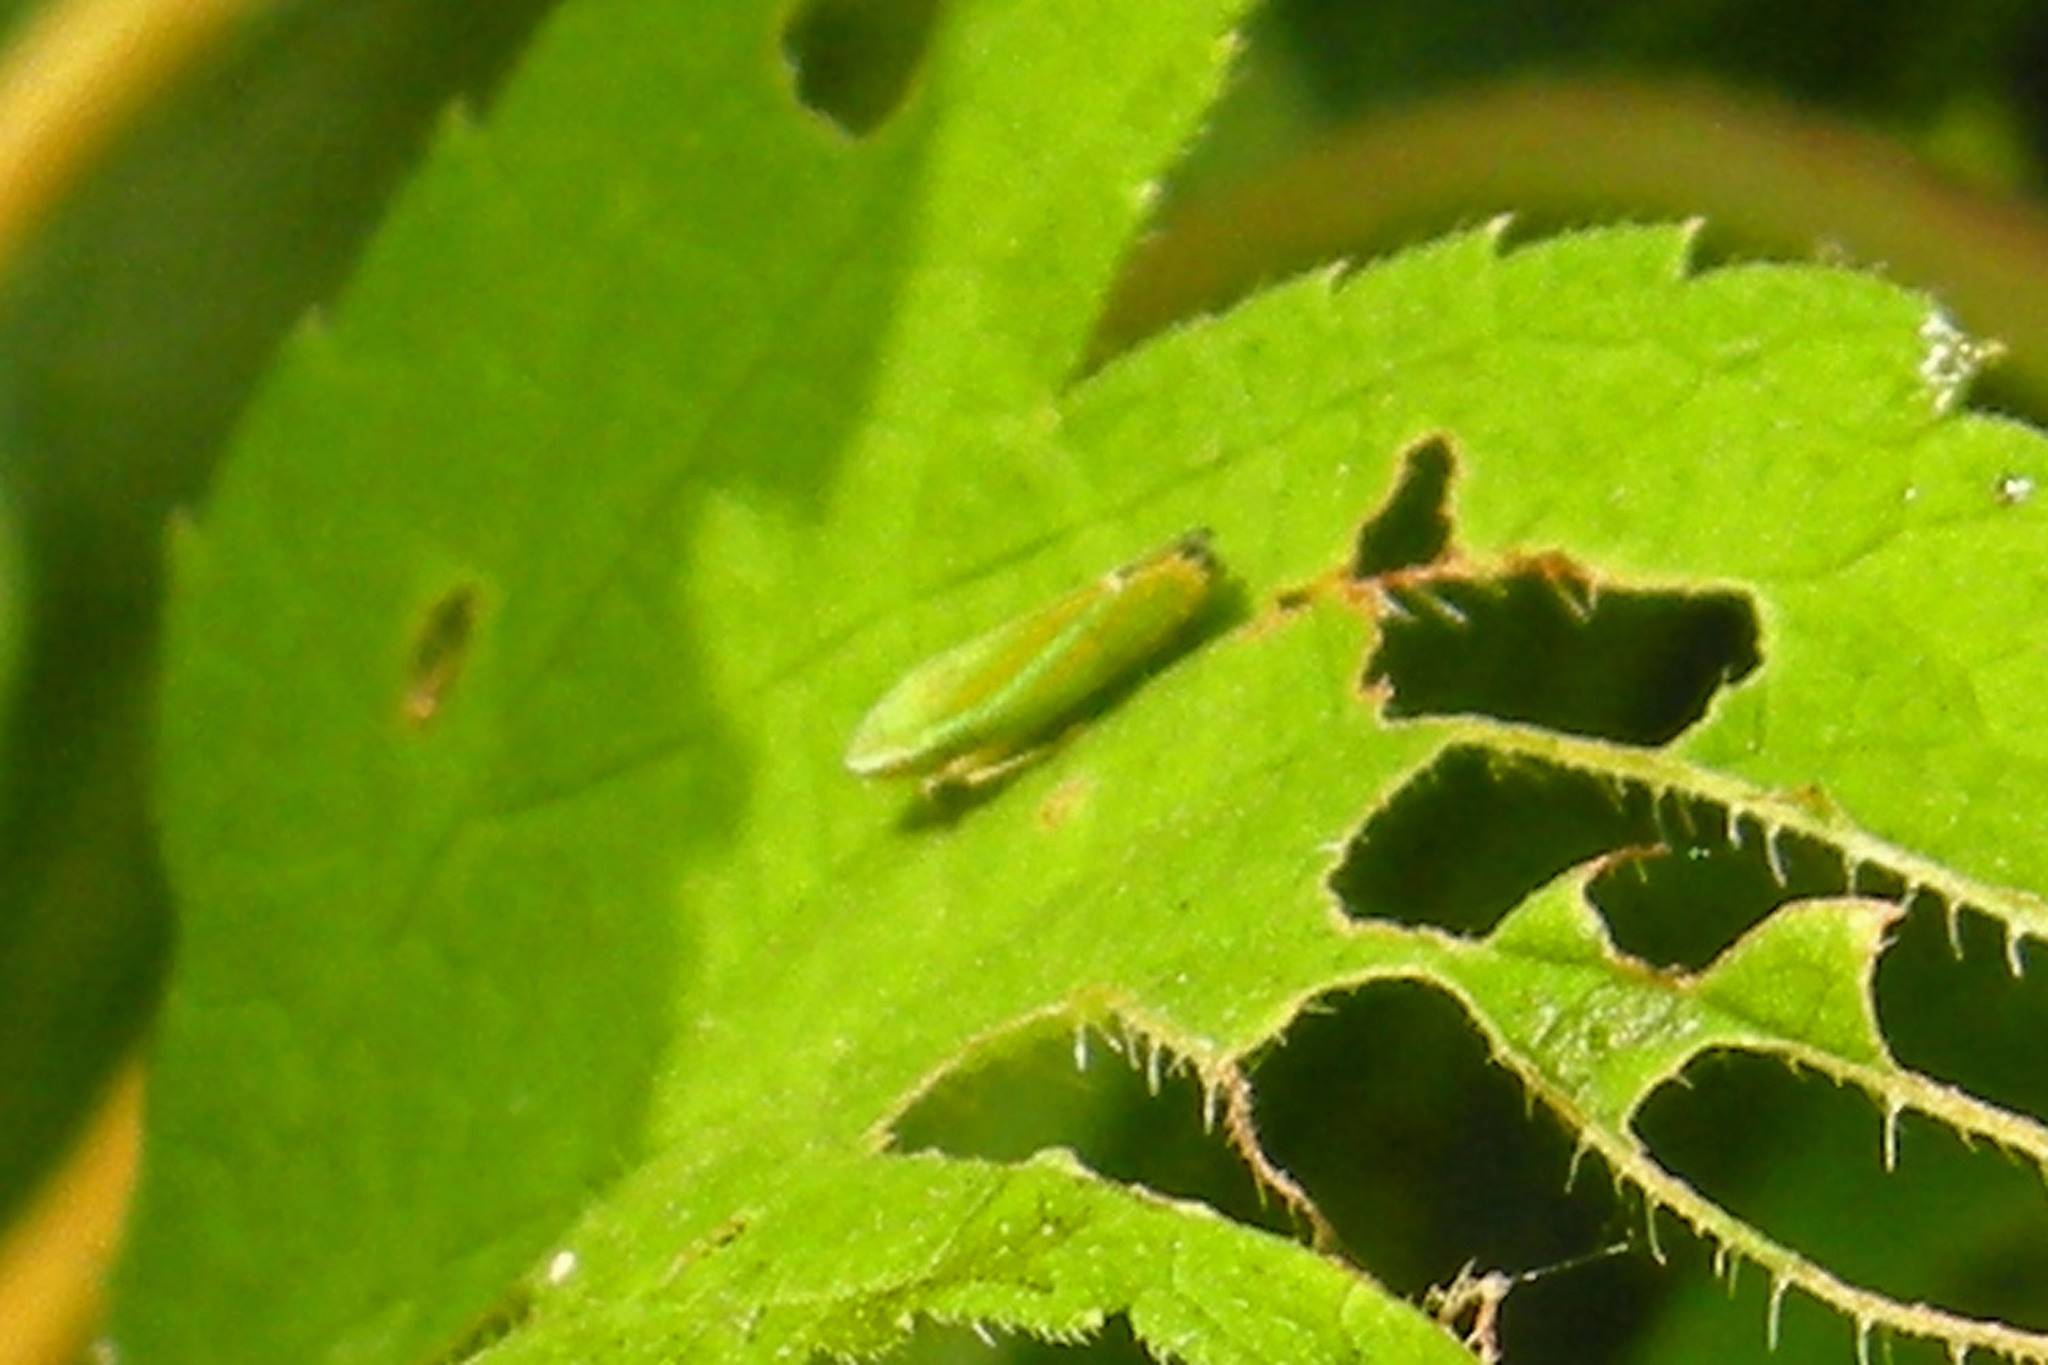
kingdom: Animalia
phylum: Arthropoda
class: Insecta
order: Hemiptera
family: Cicadellidae
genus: Graphocephala
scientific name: Graphocephala versuta
